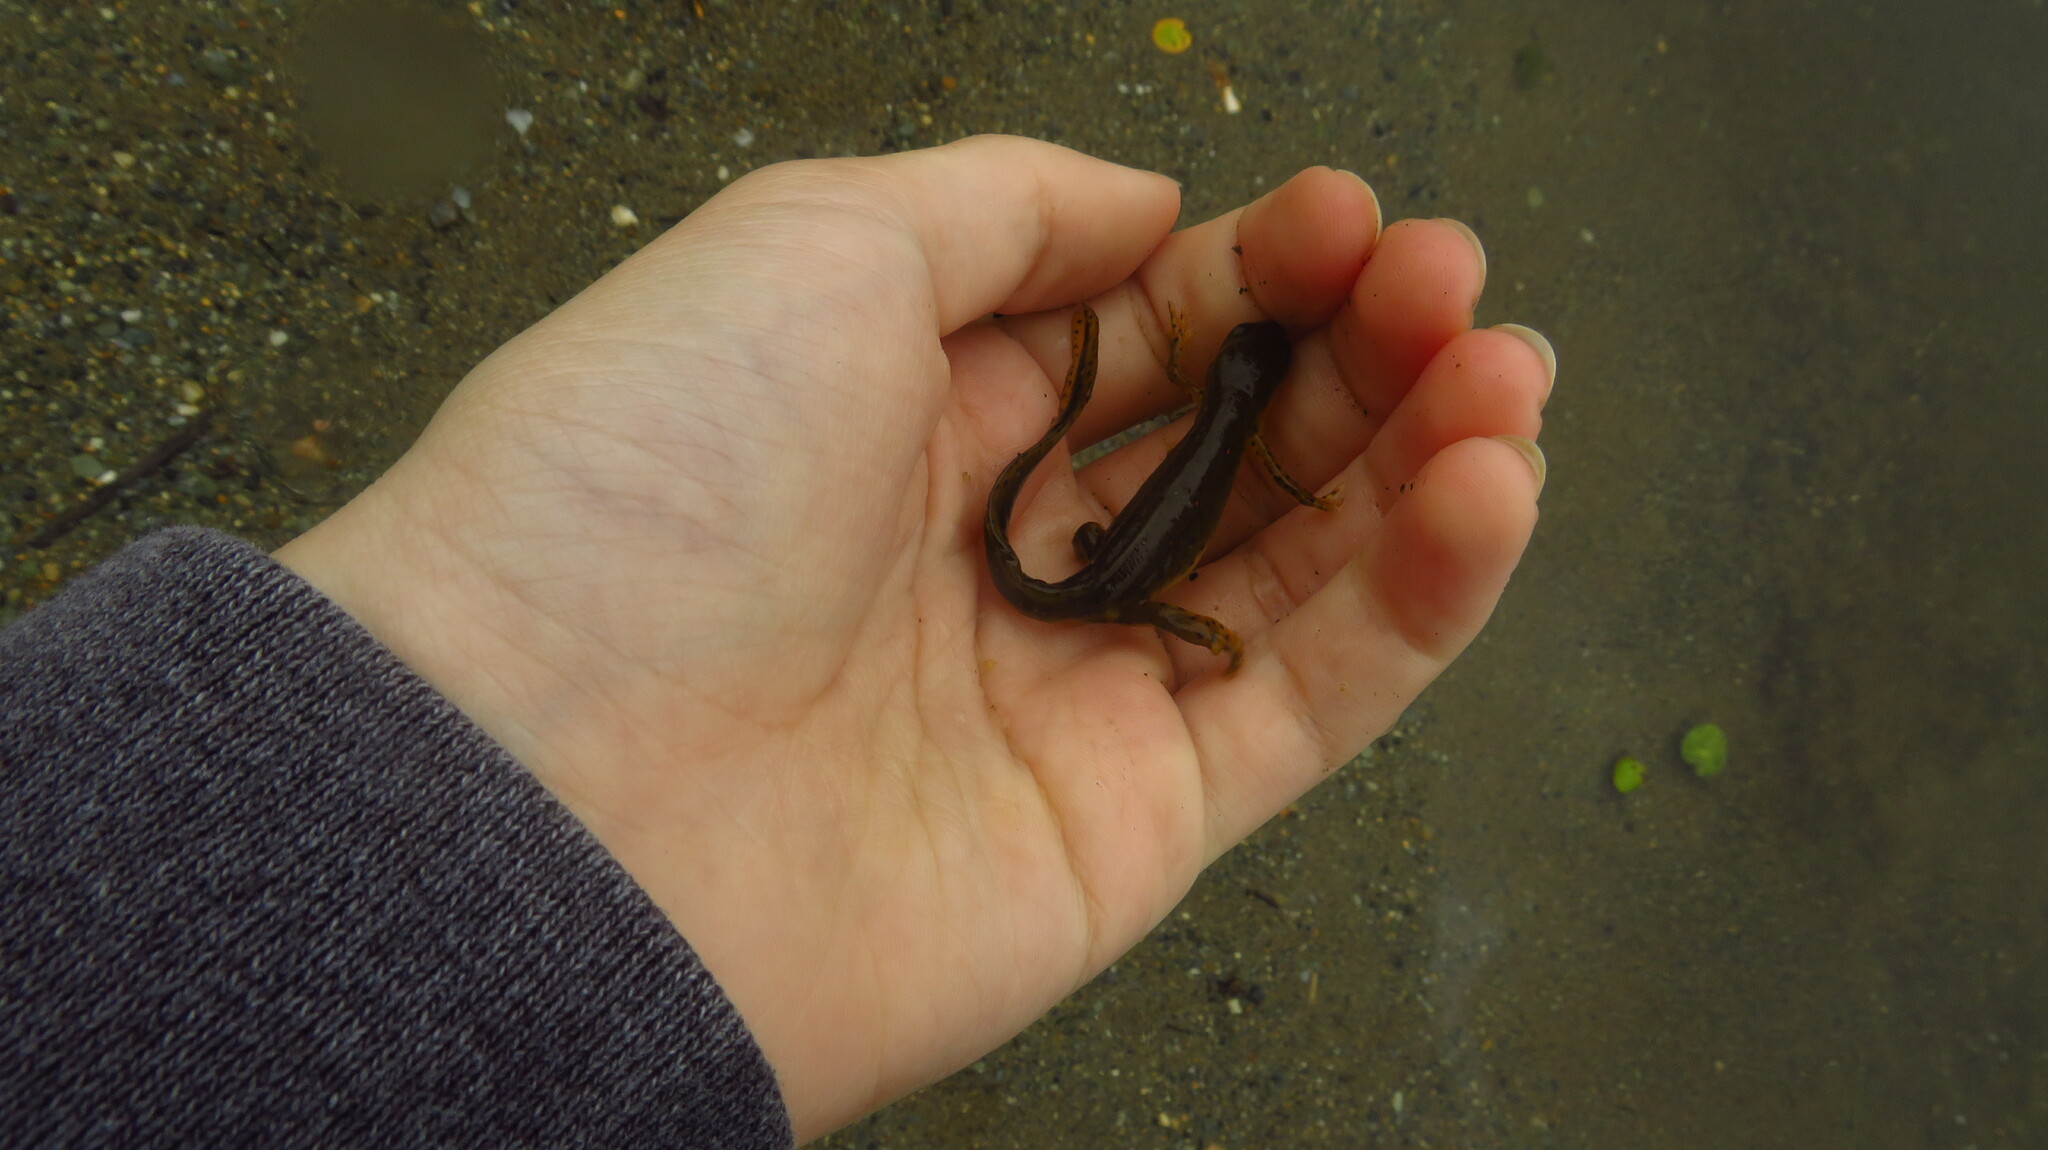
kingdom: Animalia
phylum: Chordata
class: Amphibia
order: Caudata
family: Salamandridae
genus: Notophthalmus
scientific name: Notophthalmus viridescens
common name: Eastern newt
